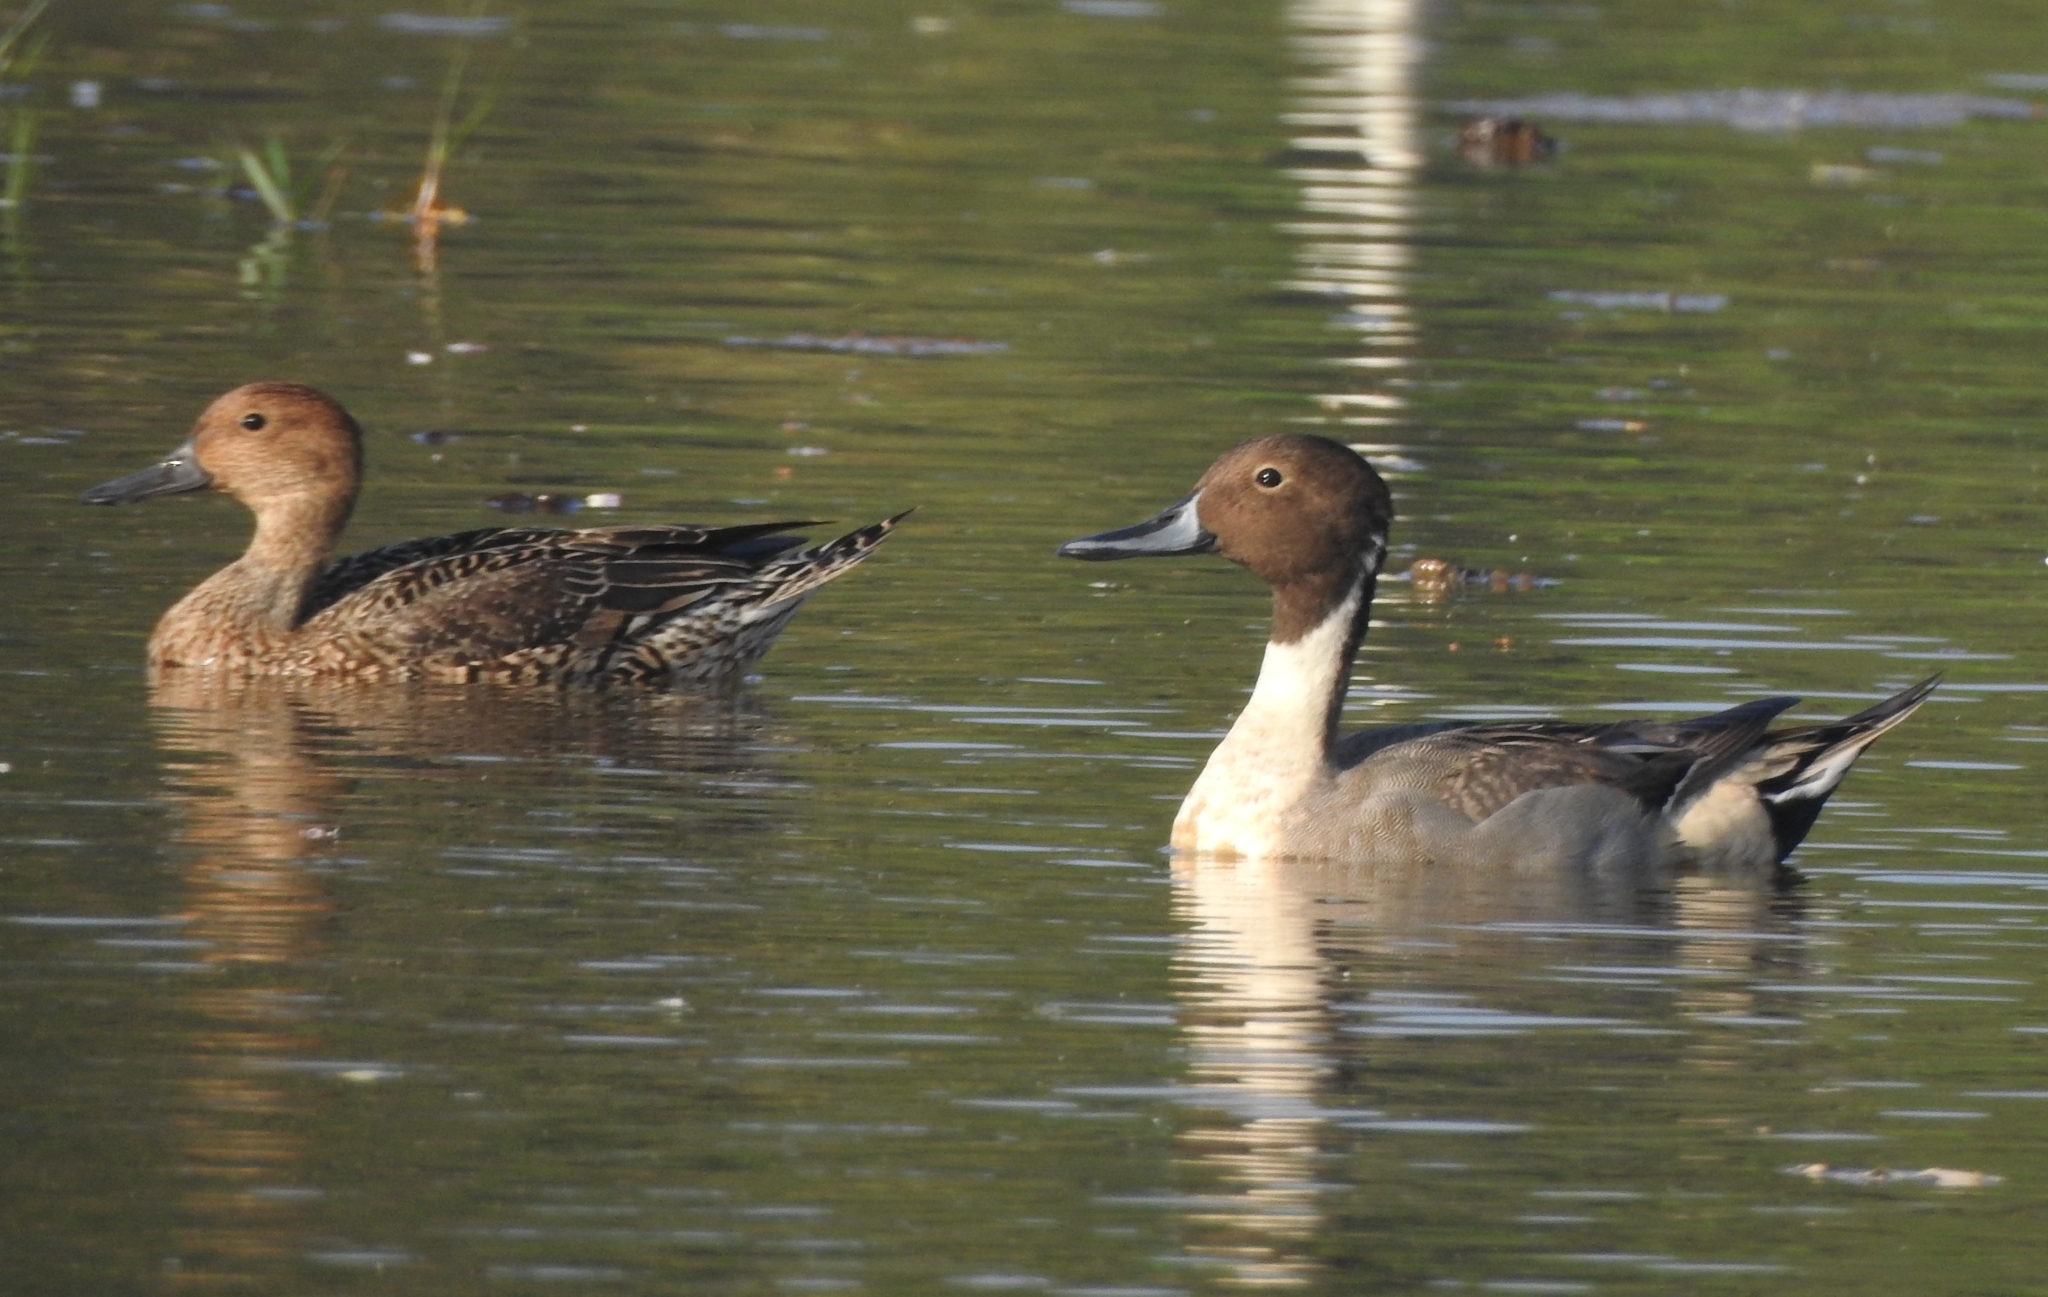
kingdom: Animalia
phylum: Chordata
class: Aves
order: Anseriformes
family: Anatidae
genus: Anas
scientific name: Anas acuta
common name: Northern pintail
